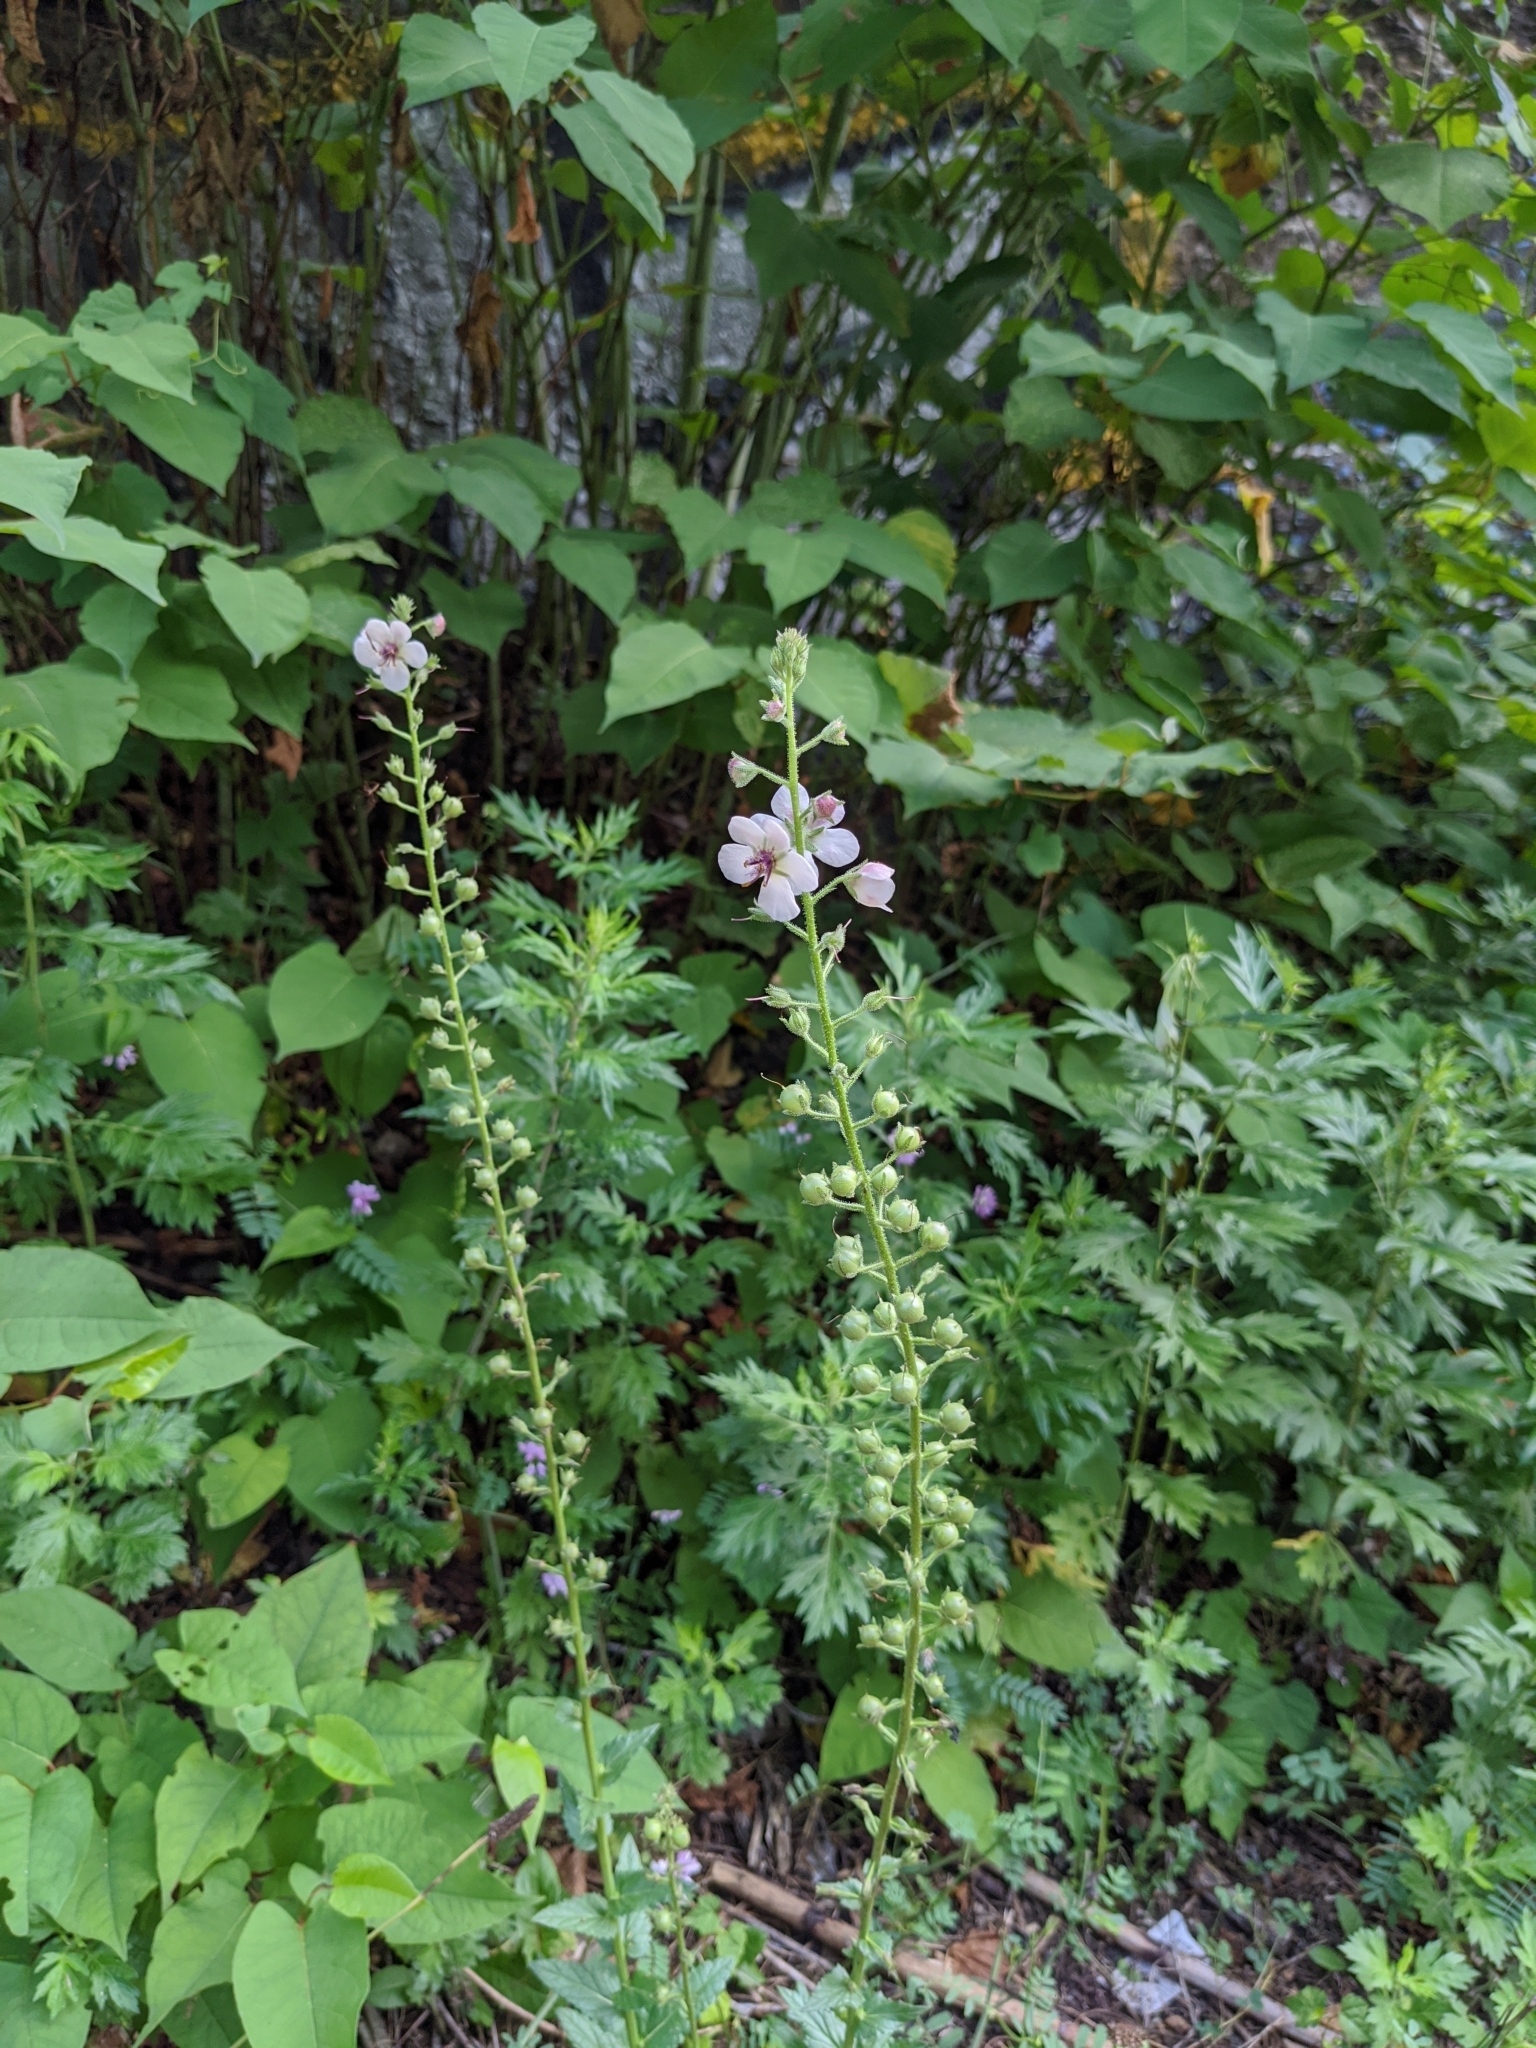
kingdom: Plantae
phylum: Tracheophyta
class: Magnoliopsida
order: Lamiales
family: Scrophulariaceae
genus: Verbascum
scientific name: Verbascum blattaria
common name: Moth mullein
